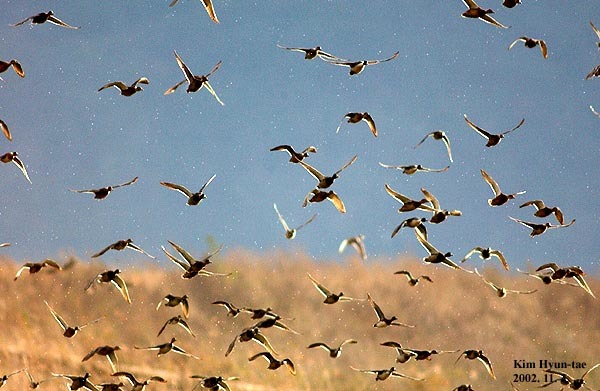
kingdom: Animalia
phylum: Chordata
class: Aves
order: Anseriformes
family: Anatidae
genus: Anas
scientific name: Anas acuta
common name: Northern pintail
